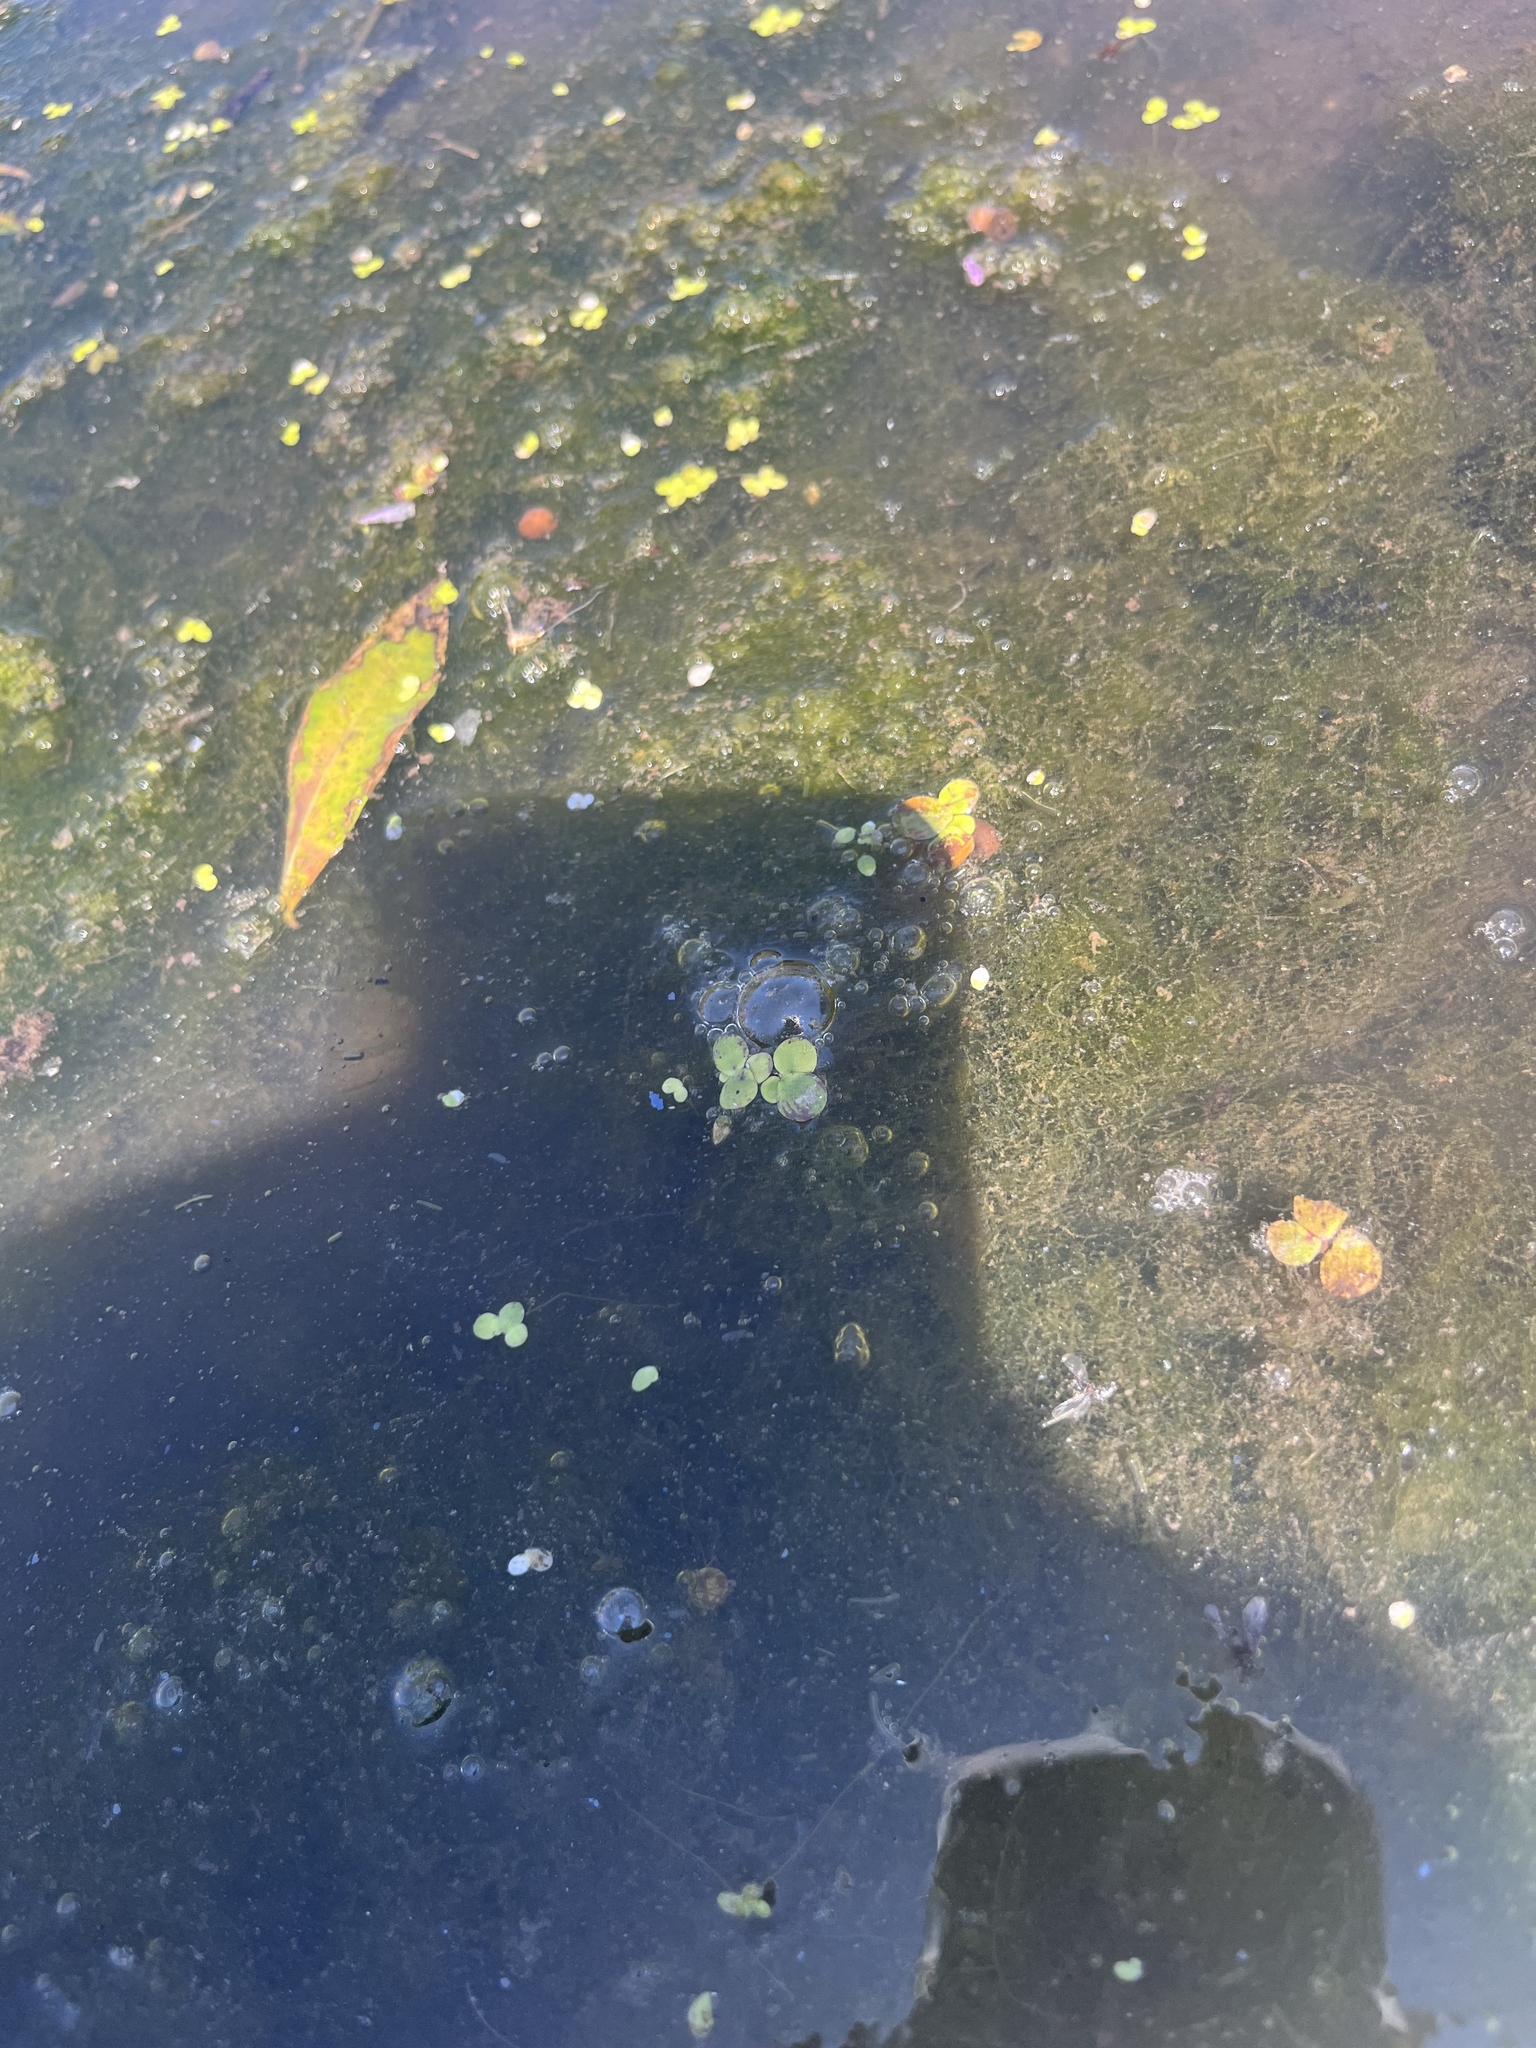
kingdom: Plantae
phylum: Tracheophyta
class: Liliopsida
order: Alismatales
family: Araceae
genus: Spirodela
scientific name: Spirodela polyrhiza
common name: Great duckweed
